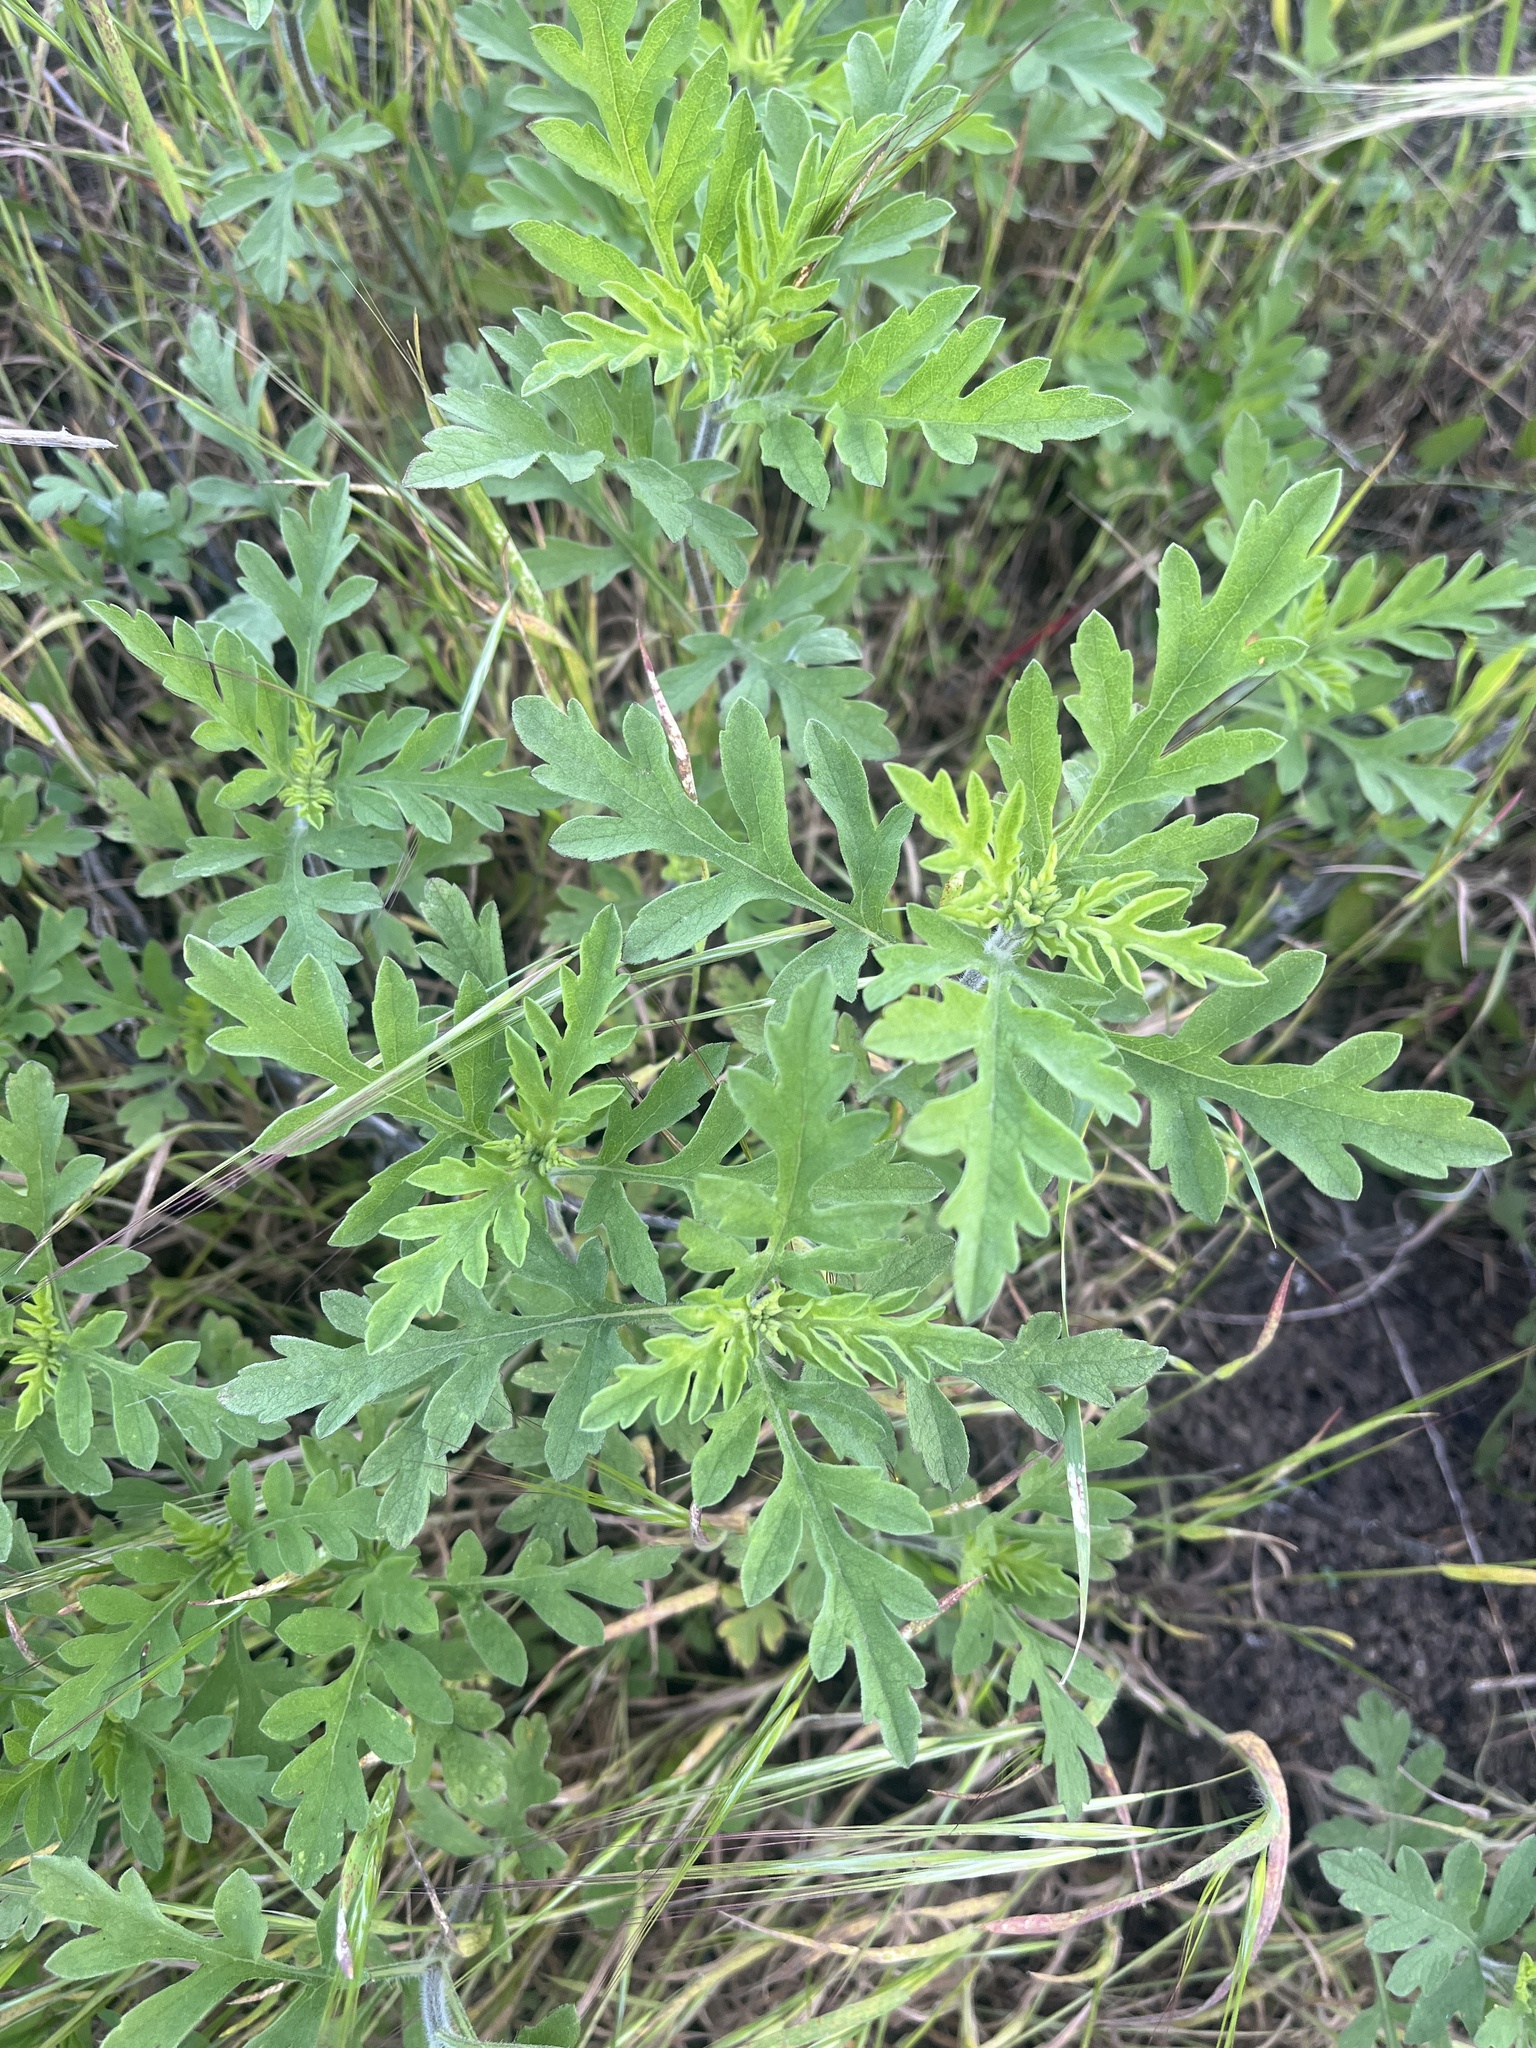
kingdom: Plantae
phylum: Tracheophyta
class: Magnoliopsida
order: Asterales
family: Asteraceae
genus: Ambrosia
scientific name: Ambrosia psilostachya
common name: Perennial ragweed
